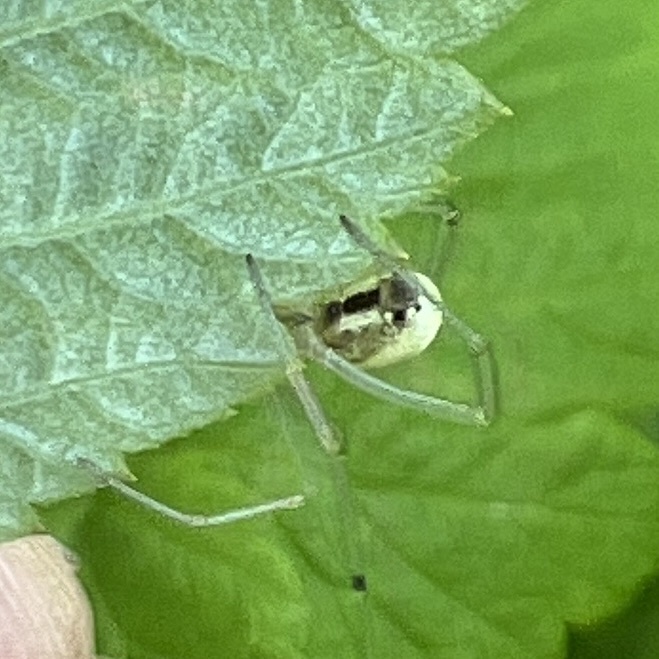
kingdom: Animalia
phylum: Arthropoda
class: Arachnida
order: Araneae
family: Theridiidae
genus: Enoplognatha
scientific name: Enoplognatha ovata
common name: Common candy-striped spider
